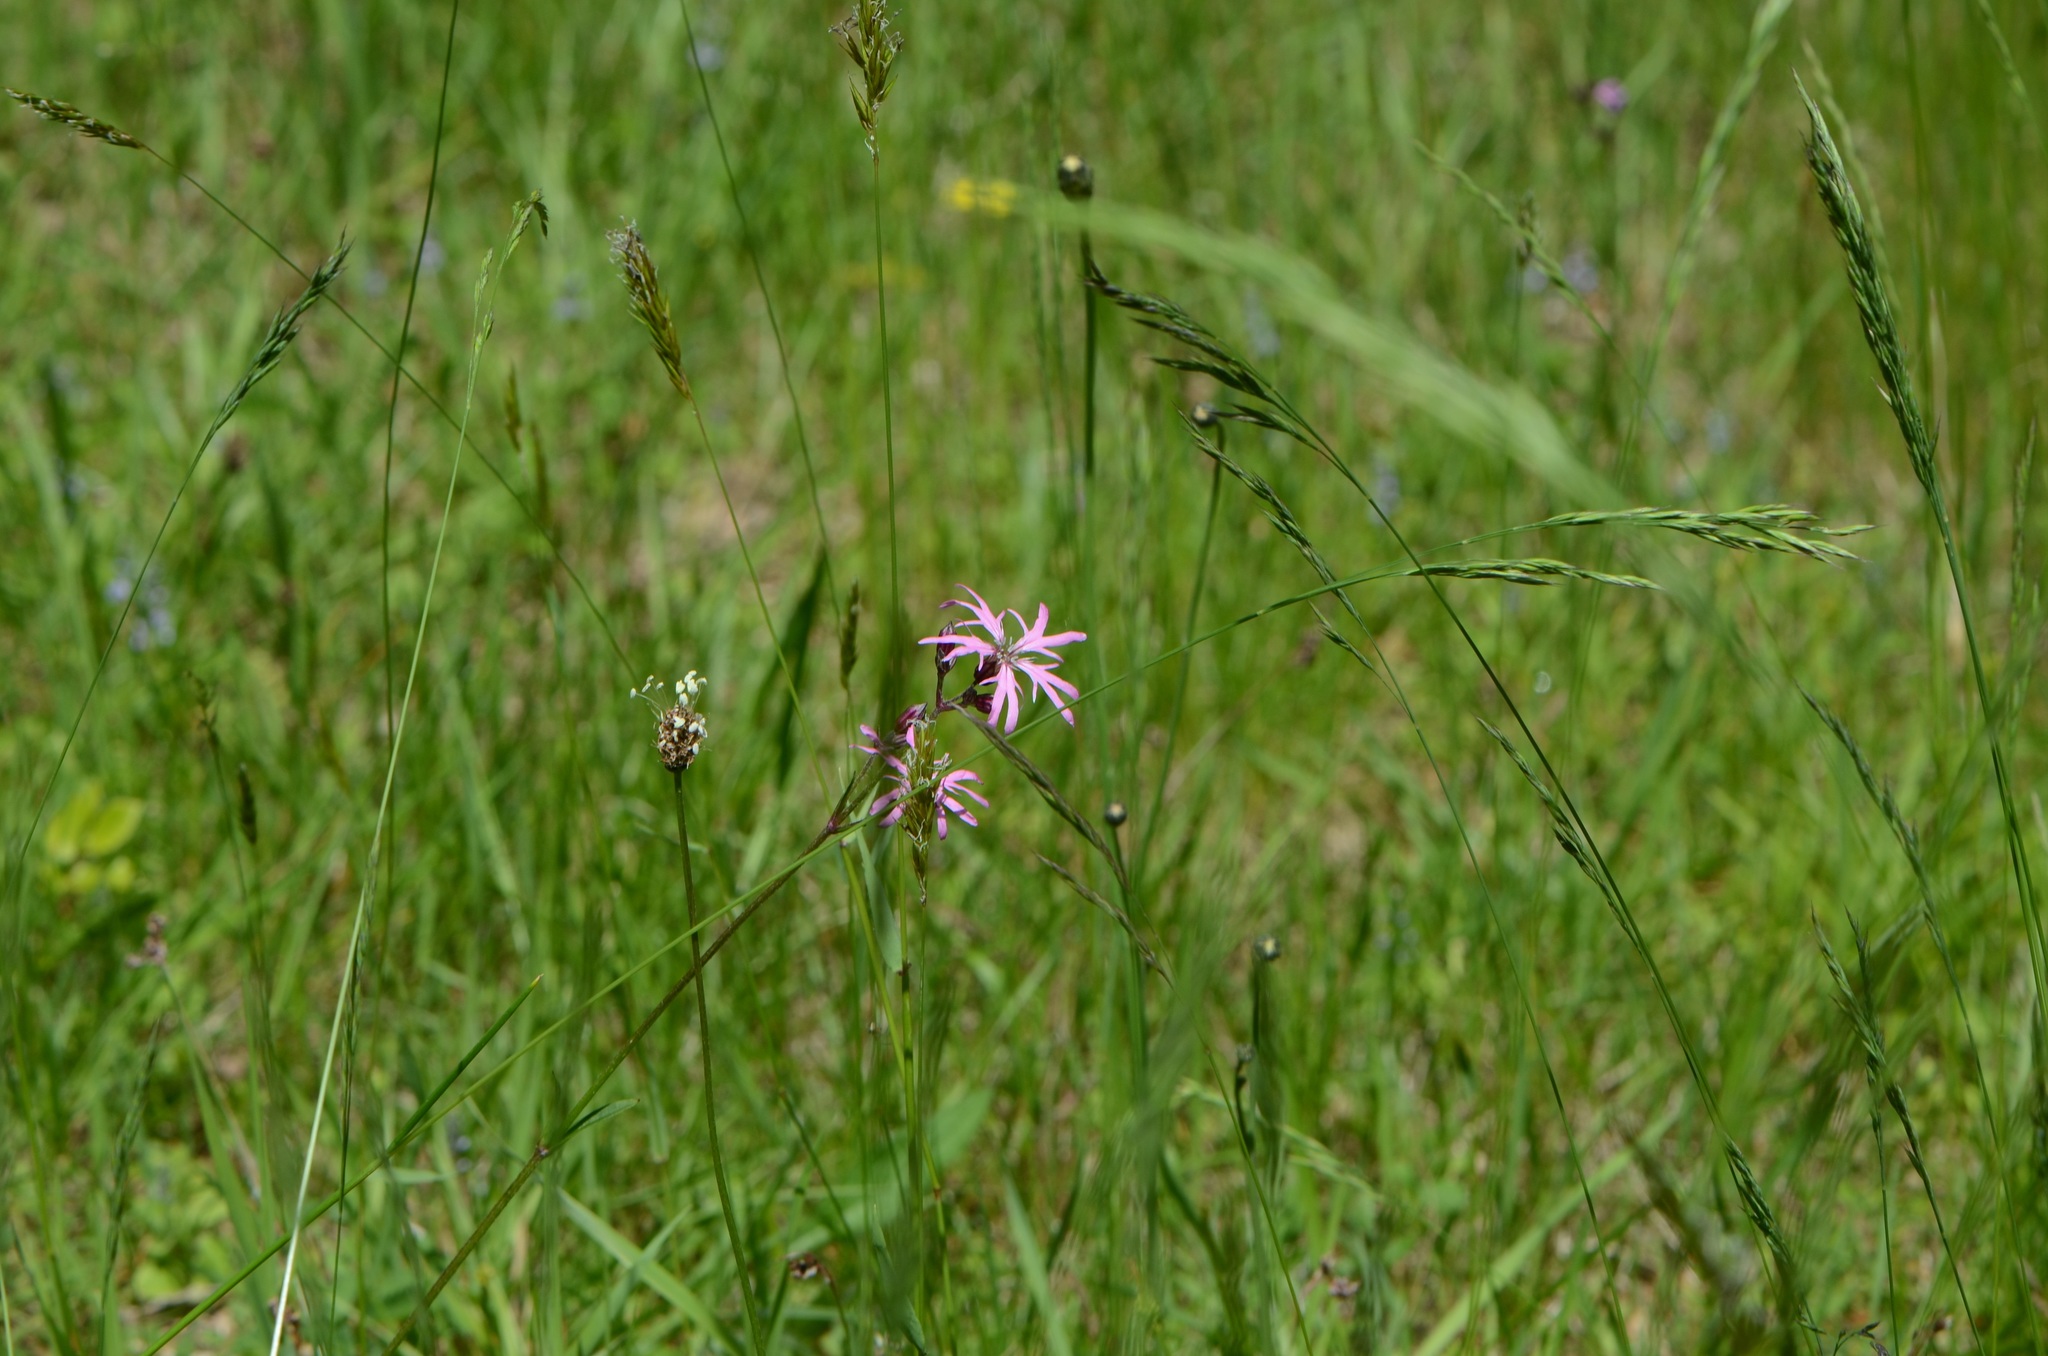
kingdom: Plantae
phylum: Tracheophyta
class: Magnoliopsida
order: Caryophyllales
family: Caryophyllaceae
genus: Silene
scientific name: Silene flos-cuculi
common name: Ragged-robin
